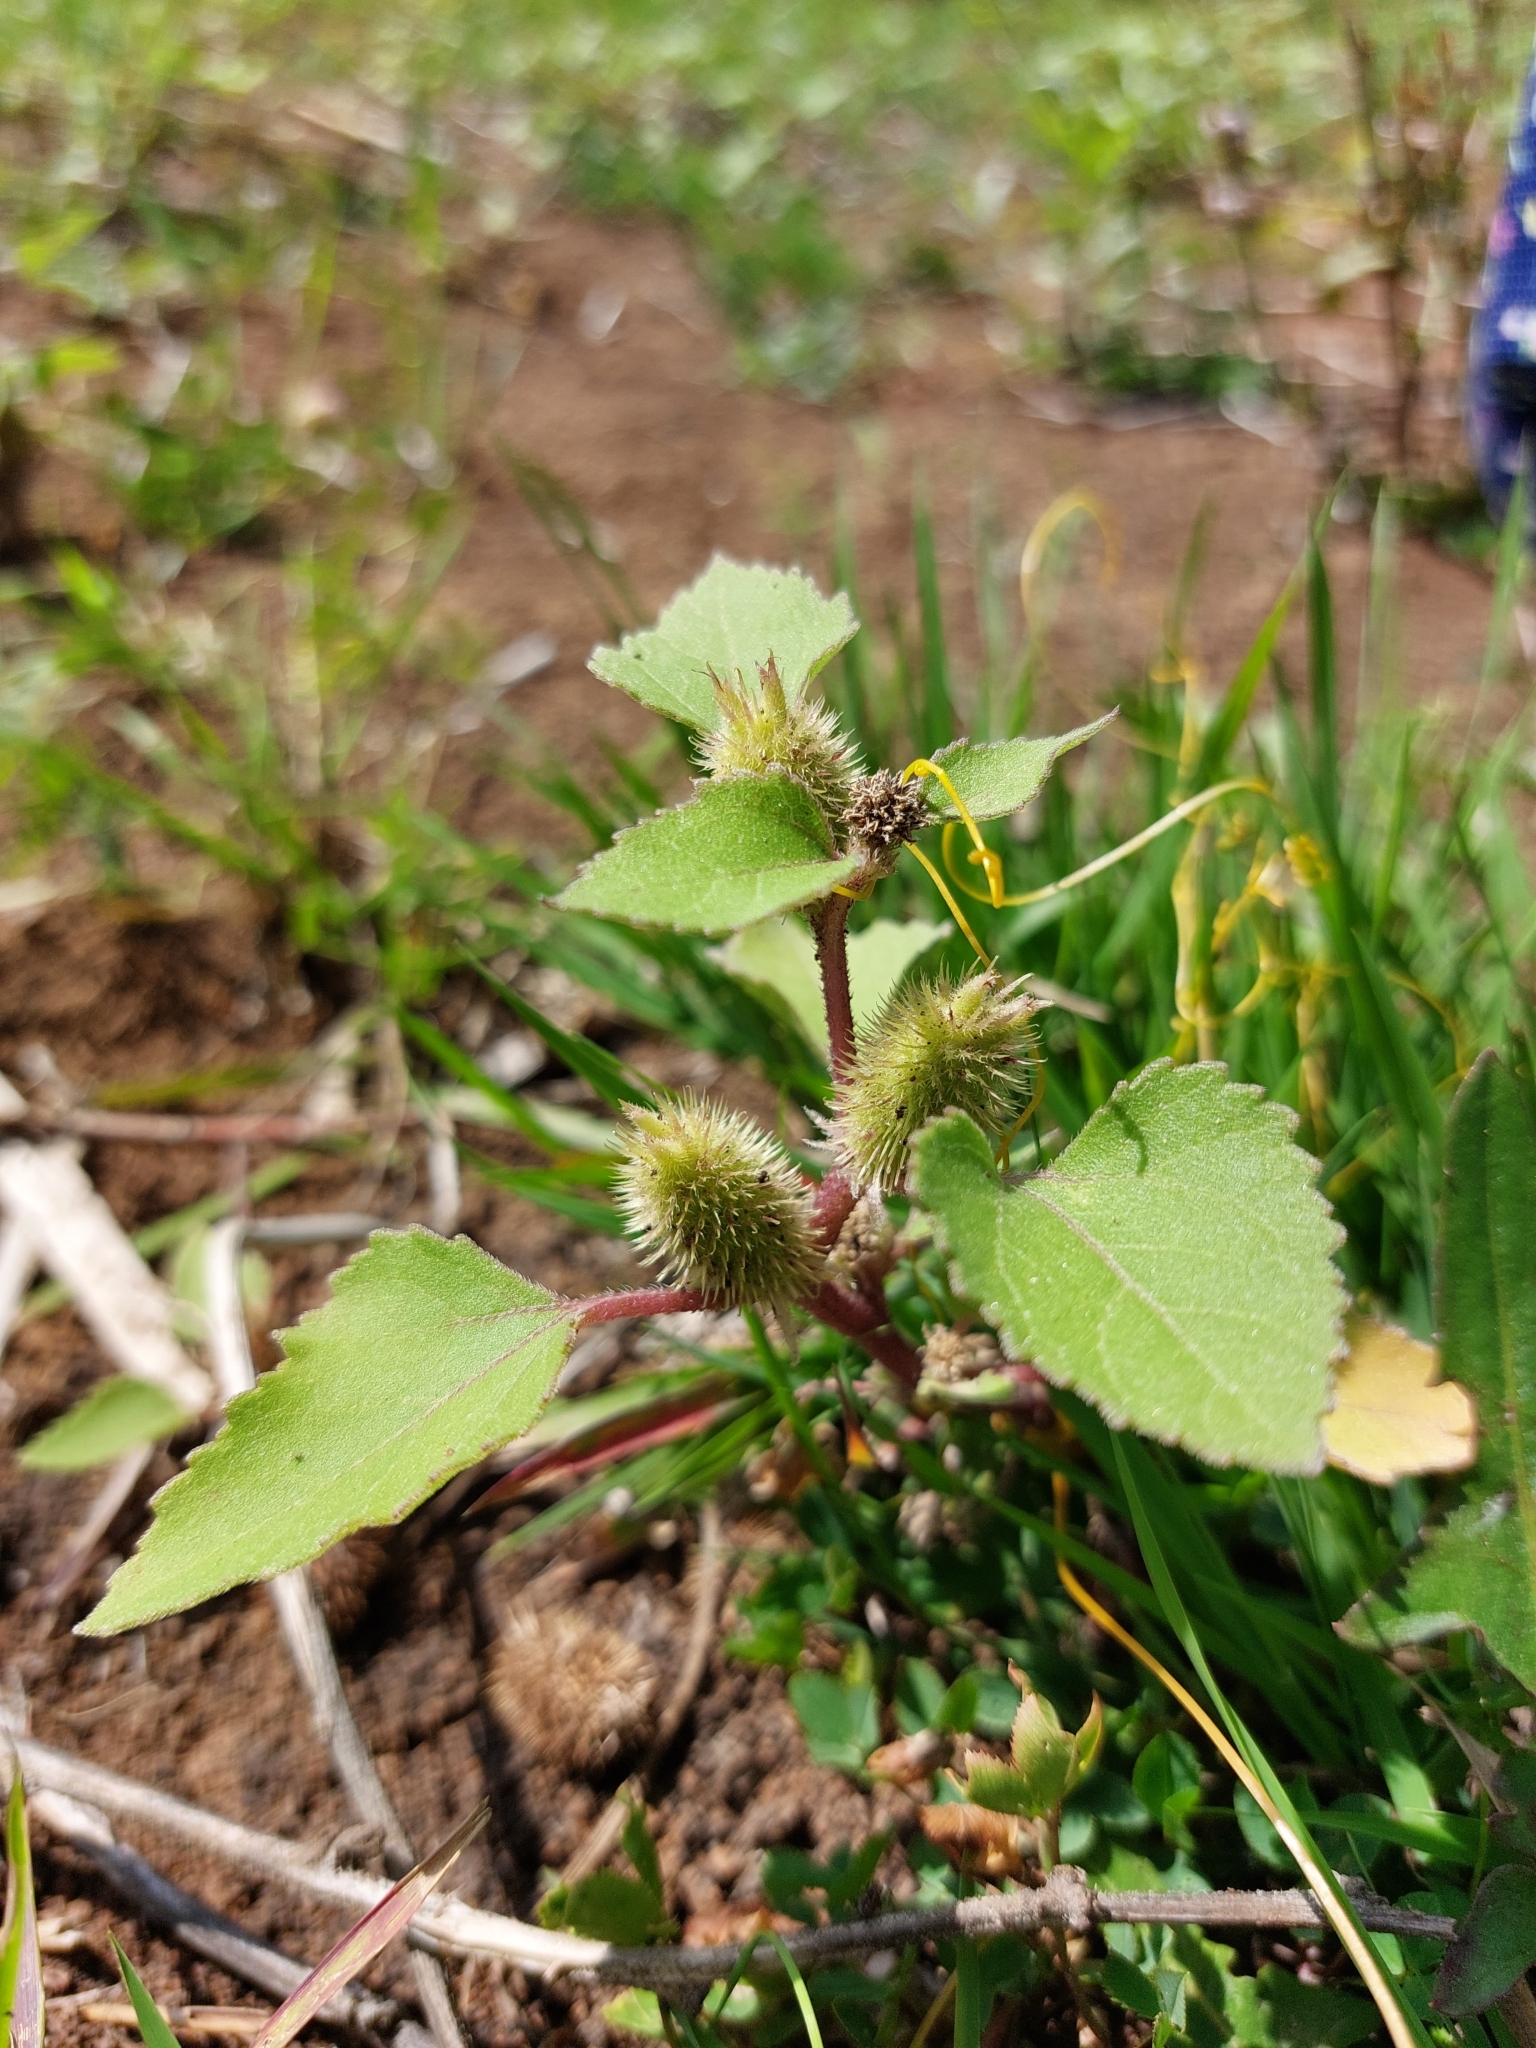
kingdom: Plantae
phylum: Tracheophyta
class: Magnoliopsida
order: Asterales
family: Asteraceae
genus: Xanthium
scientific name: Xanthium orientale
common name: Californian burr
